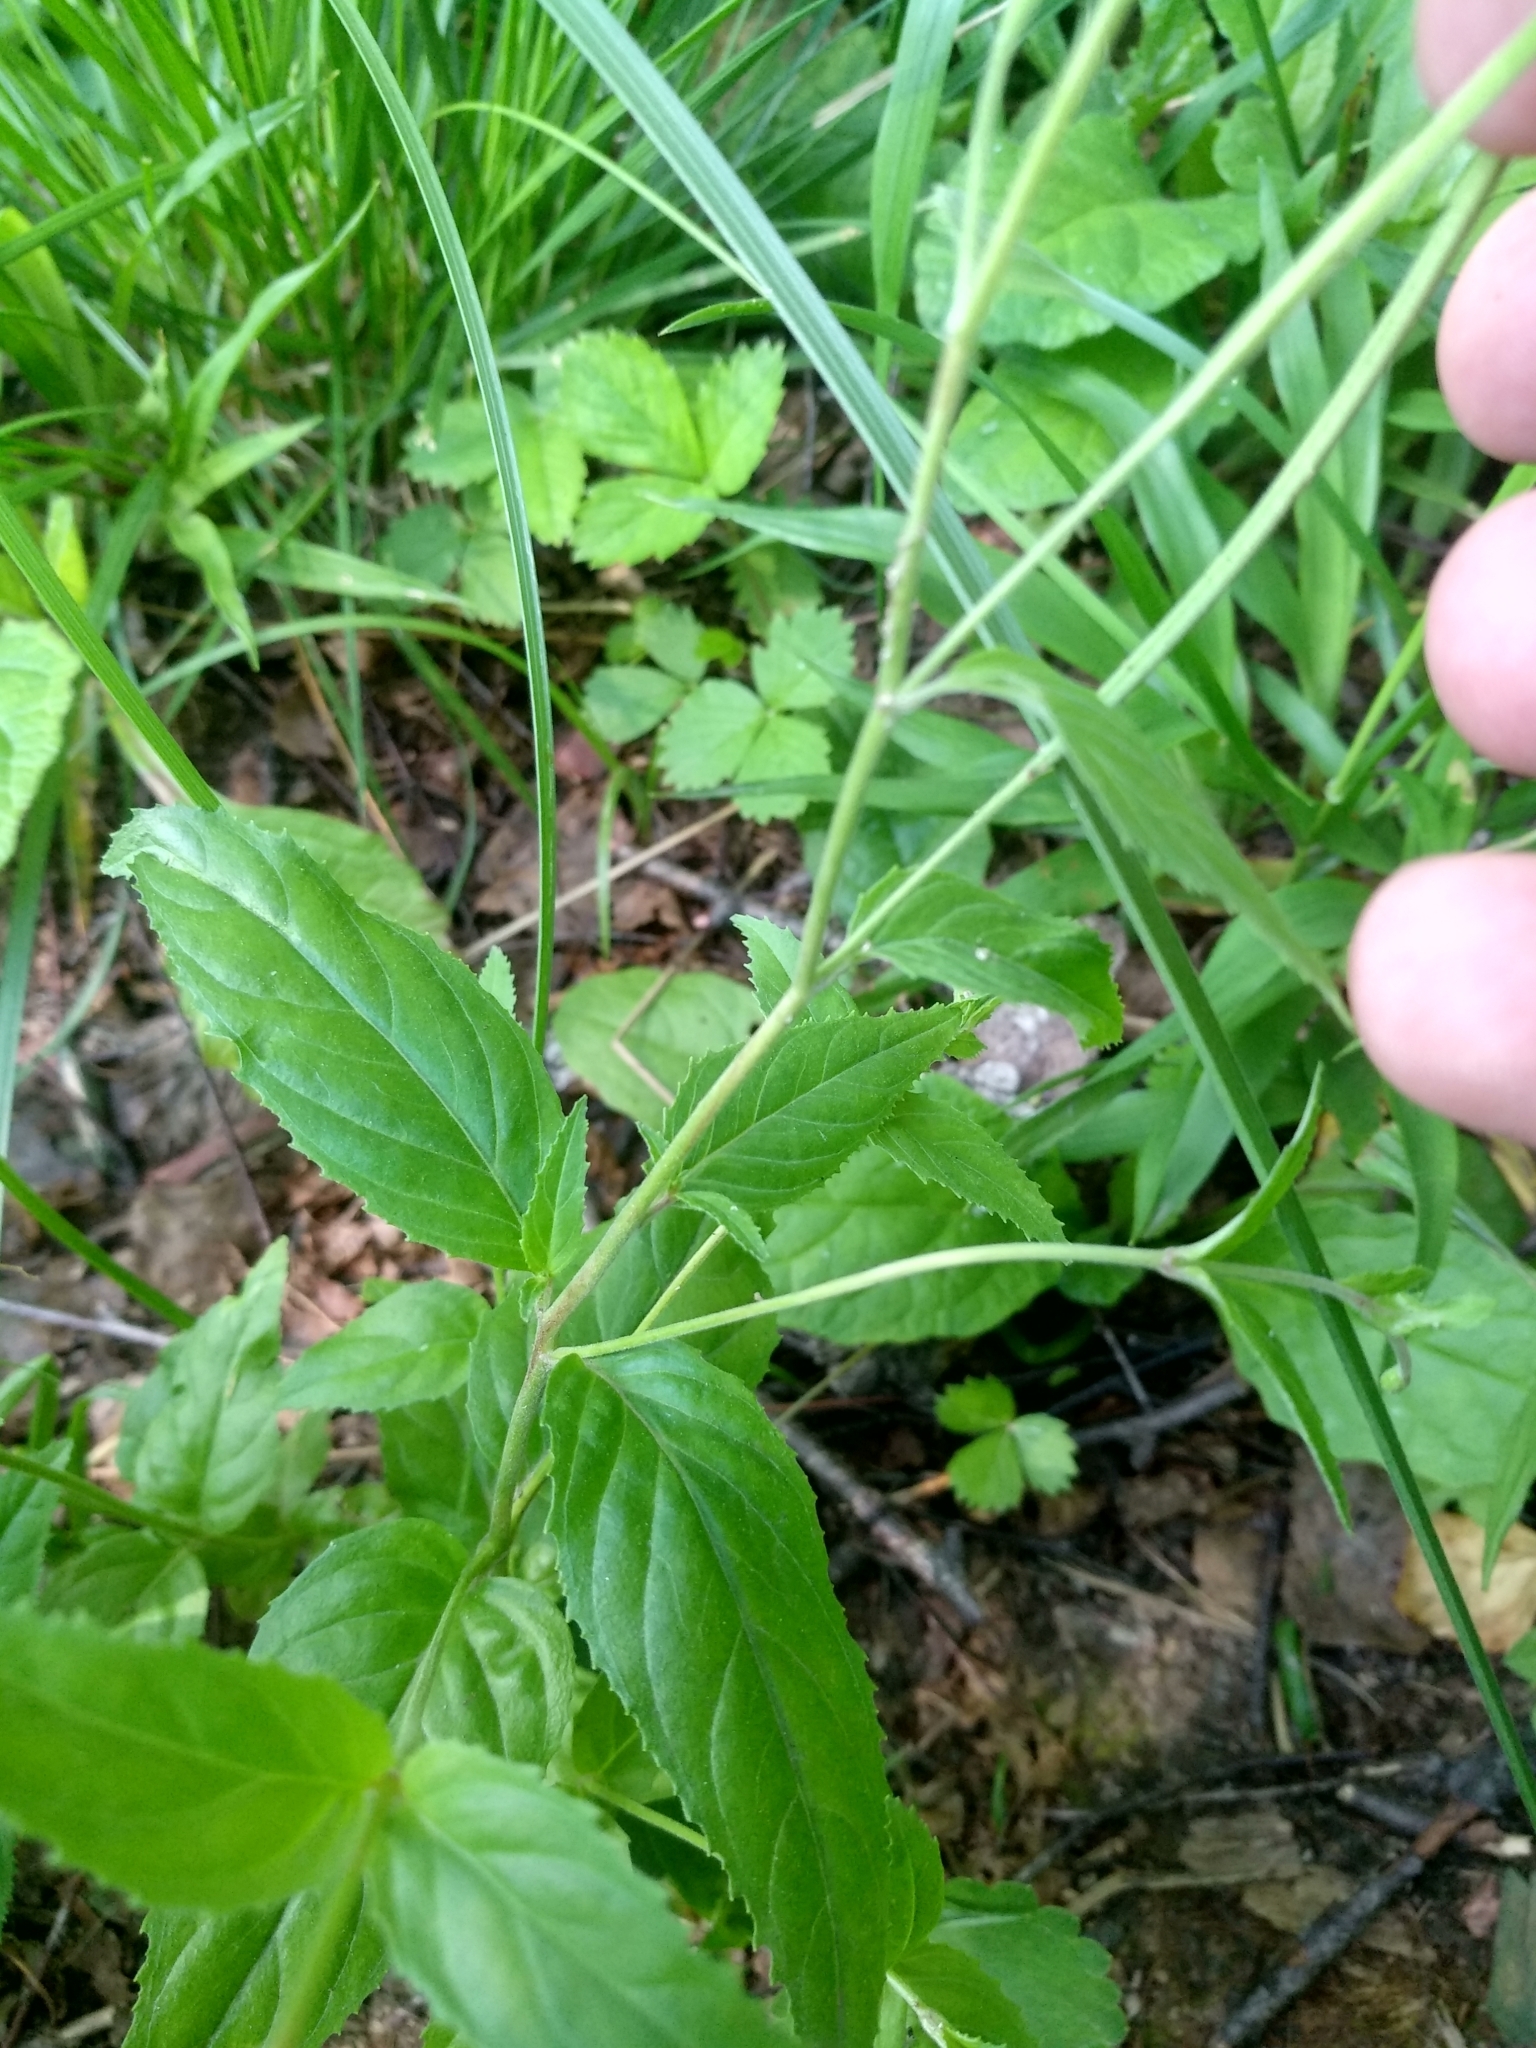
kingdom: Plantae
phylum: Tracheophyta
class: Magnoliopsida
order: Myrtales
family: Onagraceae
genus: Epilobium
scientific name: Epilobium montanum
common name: Broad-leaved willowherb
